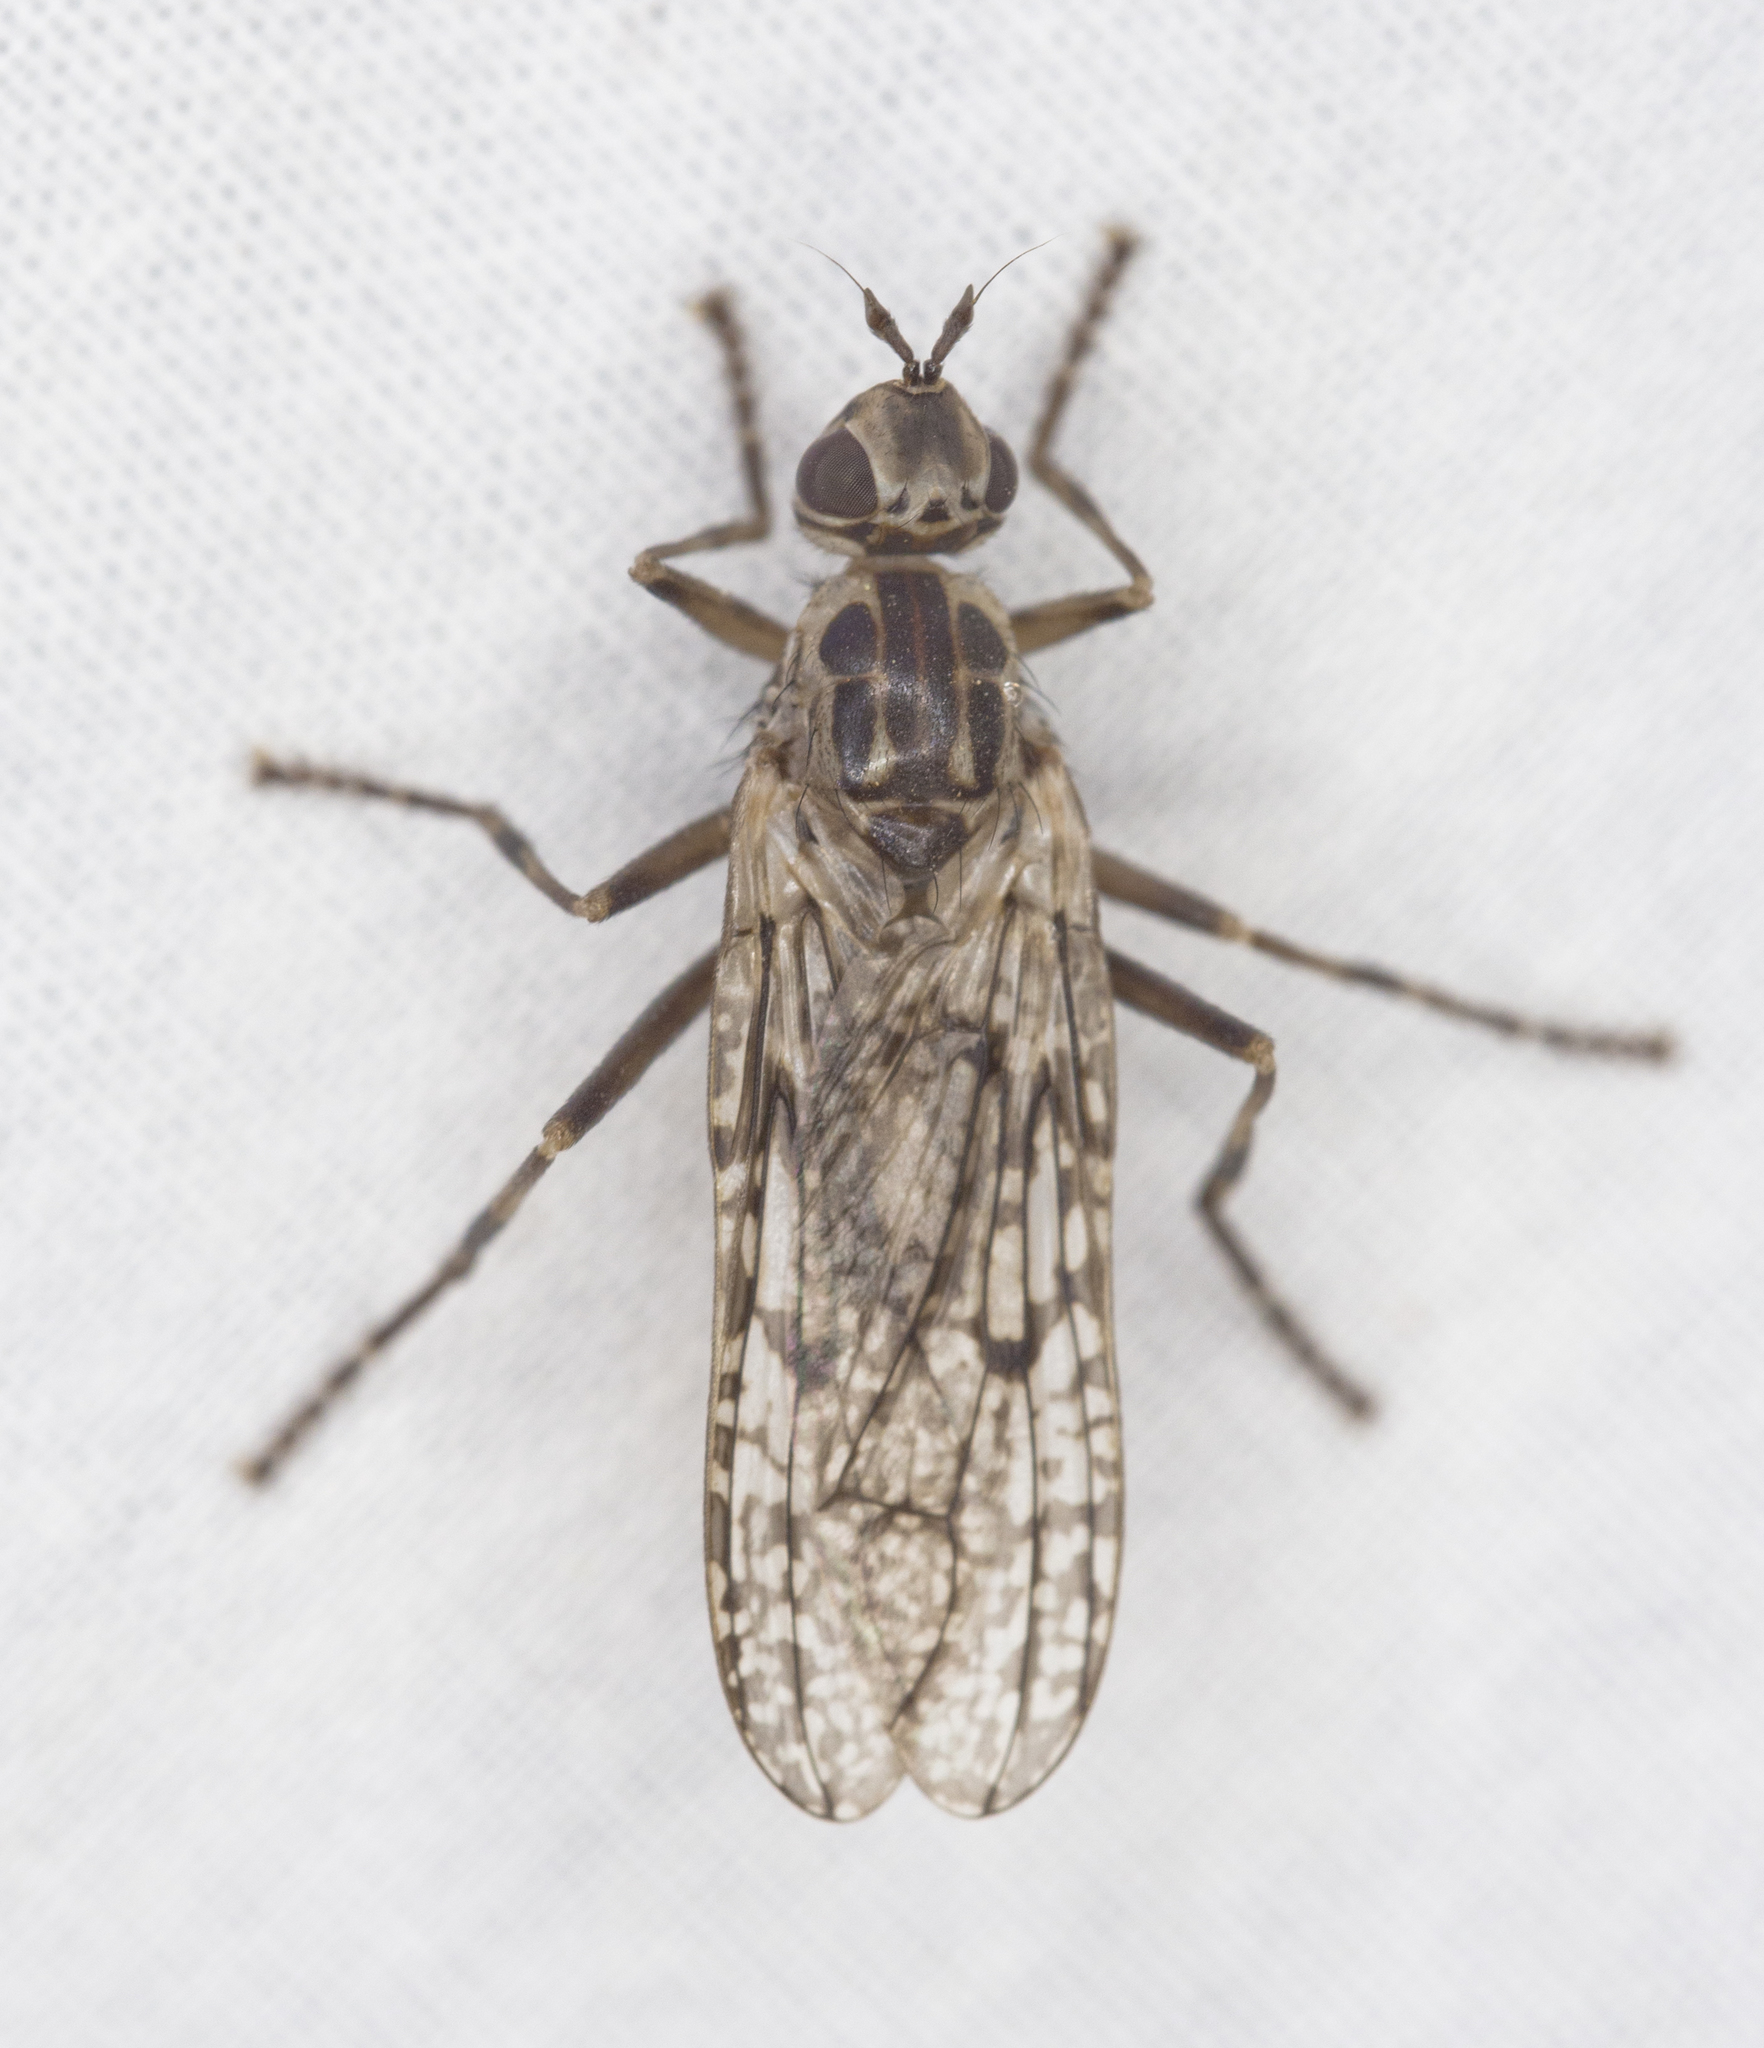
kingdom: Animalia
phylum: Arthropoda
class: Insecta
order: Diptera
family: Pyrgotidae
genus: Pyrgota
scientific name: Pyrgota shewelli
